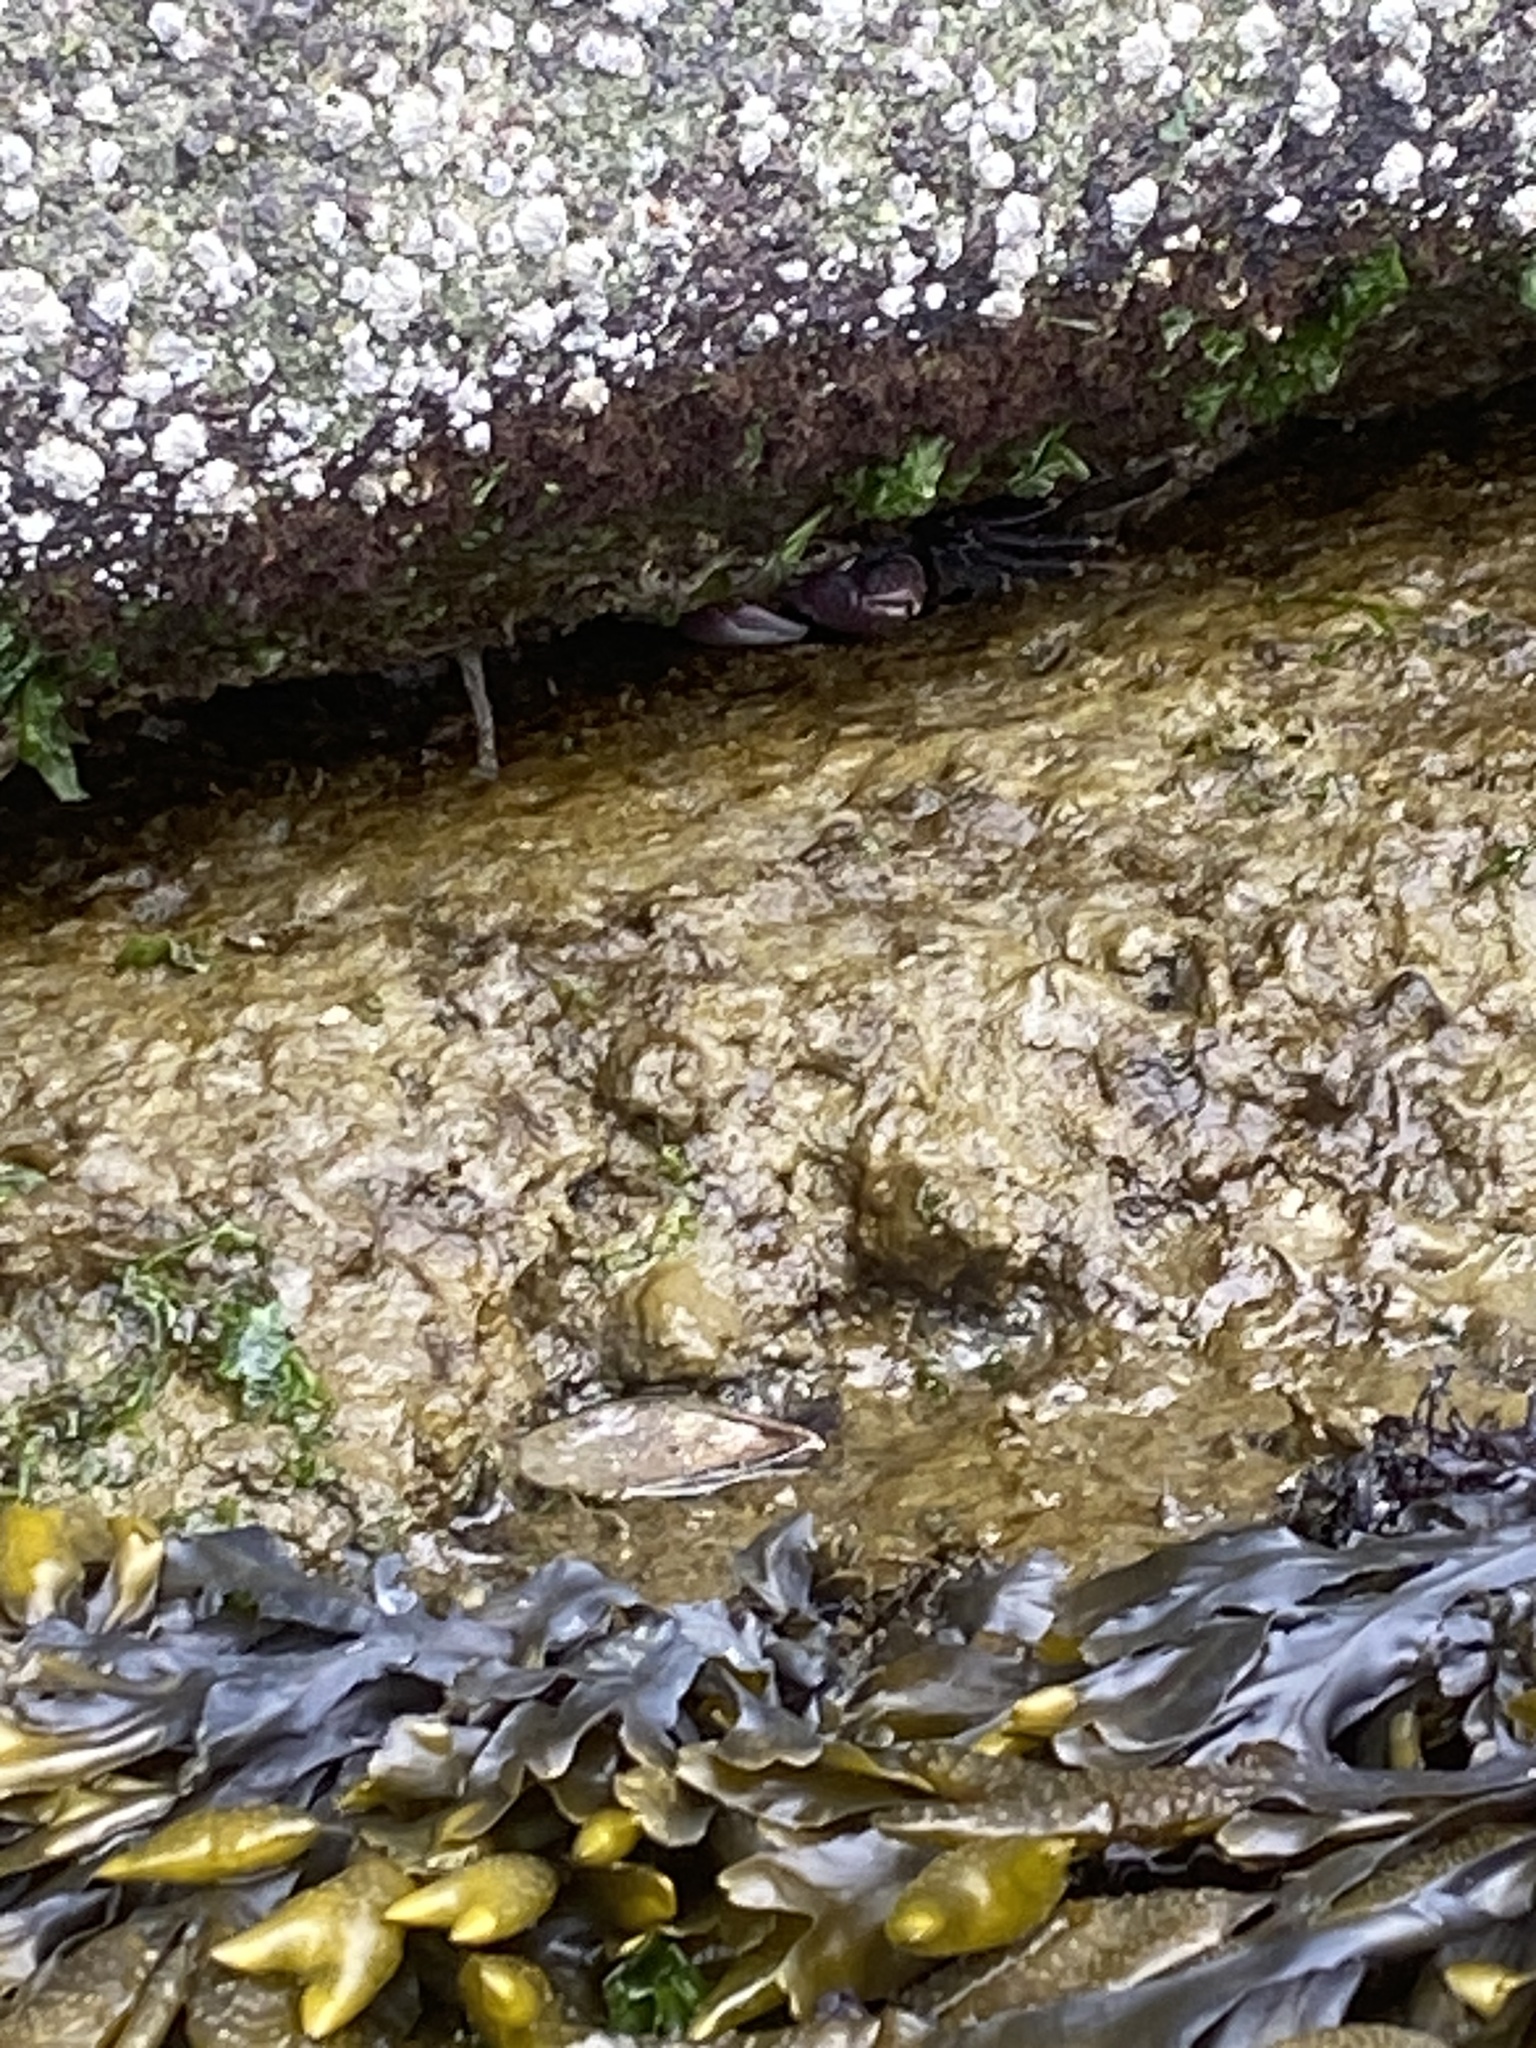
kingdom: Animalia
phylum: Arthropoda
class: Malacostraca
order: Decapoda
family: Grapsidae
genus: Pachygrapsus
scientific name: Pachygrapsus crassipes
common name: Striped shore crab
